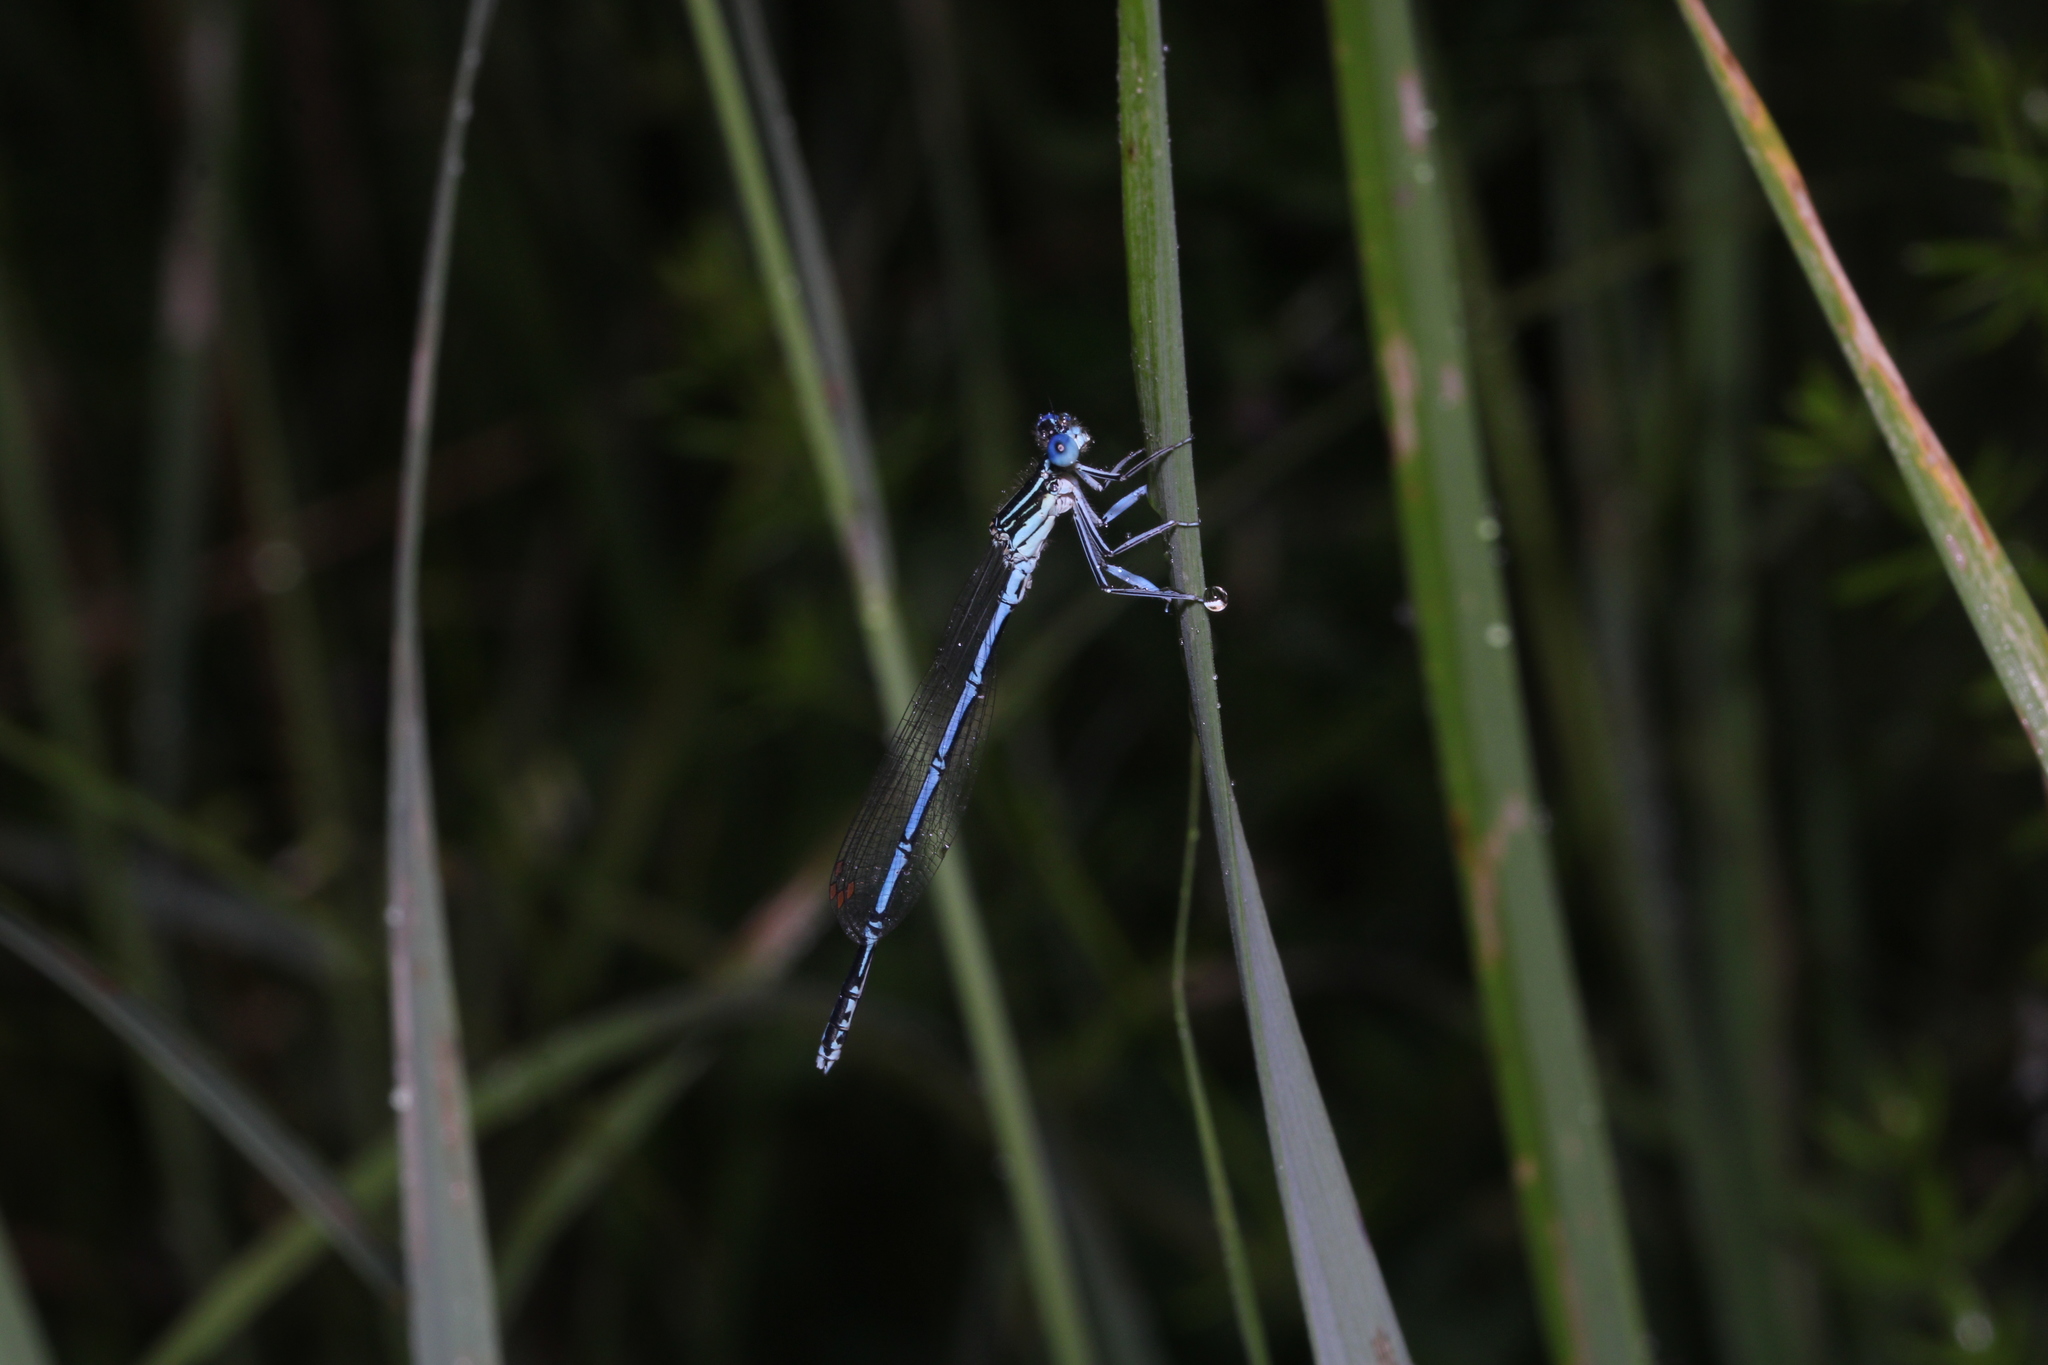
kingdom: Animalia
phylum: Arthropoda
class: Insecta
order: Odonata
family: Platycnemididae
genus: Platycnemis
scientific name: Platycnemis pennipes
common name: White-legged damselfly
